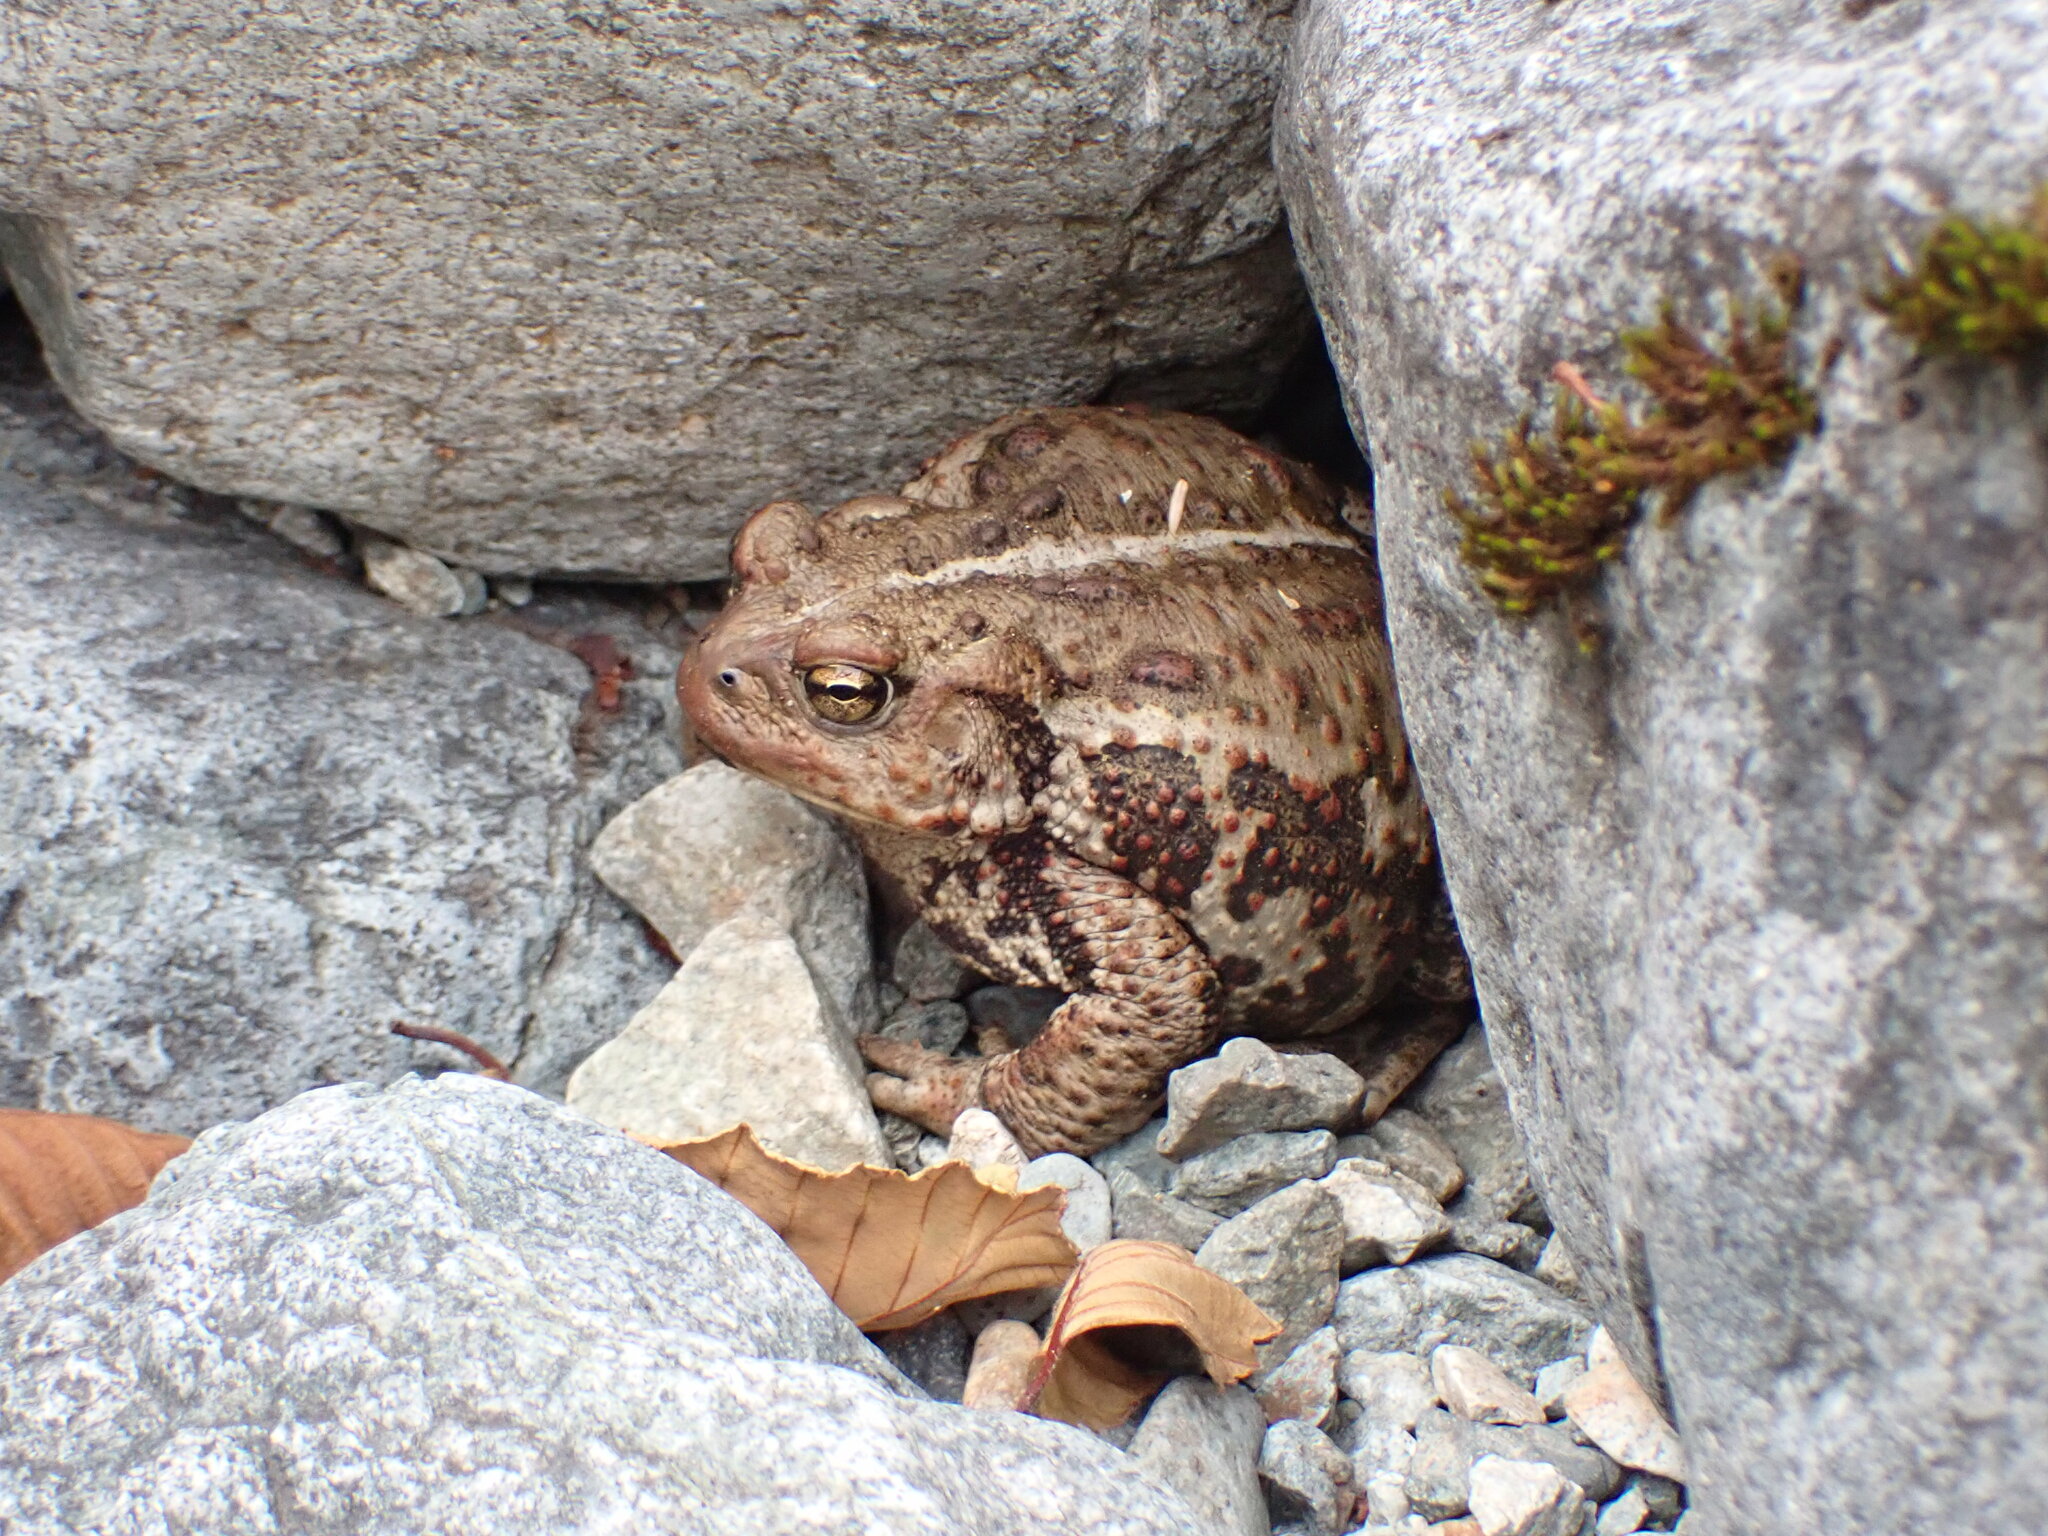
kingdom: Animalia
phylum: Chordata
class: Amphibia
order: Anura
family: Bufonidae
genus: Anaxyrus
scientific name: Anaxyrus boreas
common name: Western toad
